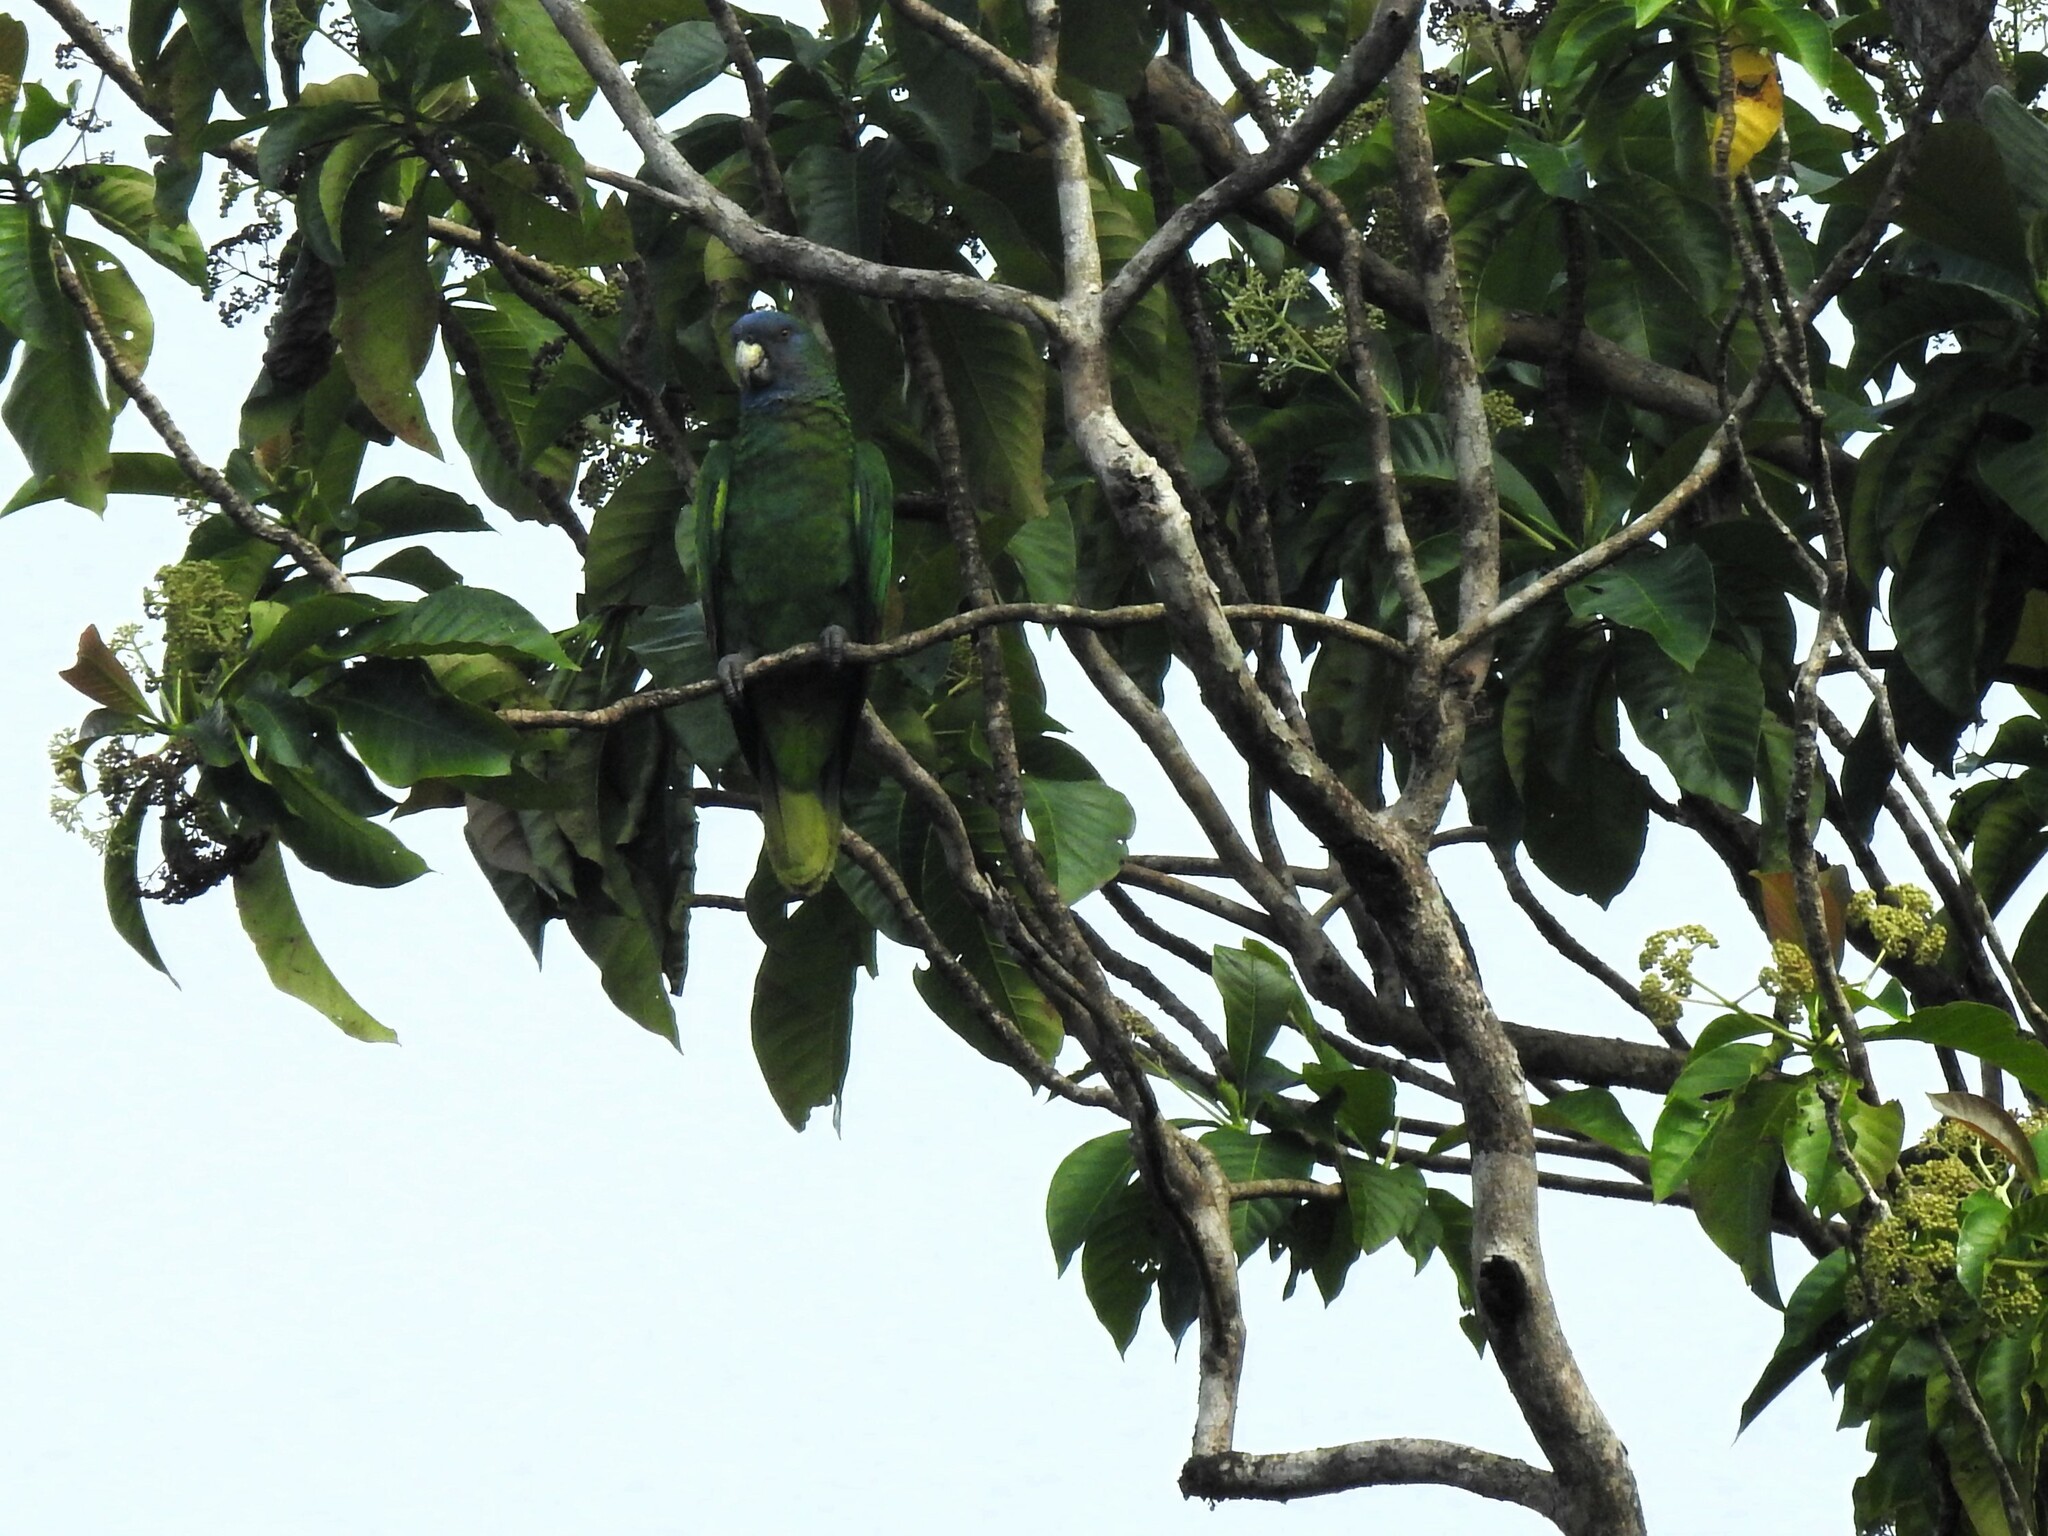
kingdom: Animalia
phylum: Chordata
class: Aves
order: Psittaciformes
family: Psittacidae
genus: Amazona
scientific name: Amazona arausiaca
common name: Red-necked amazon
